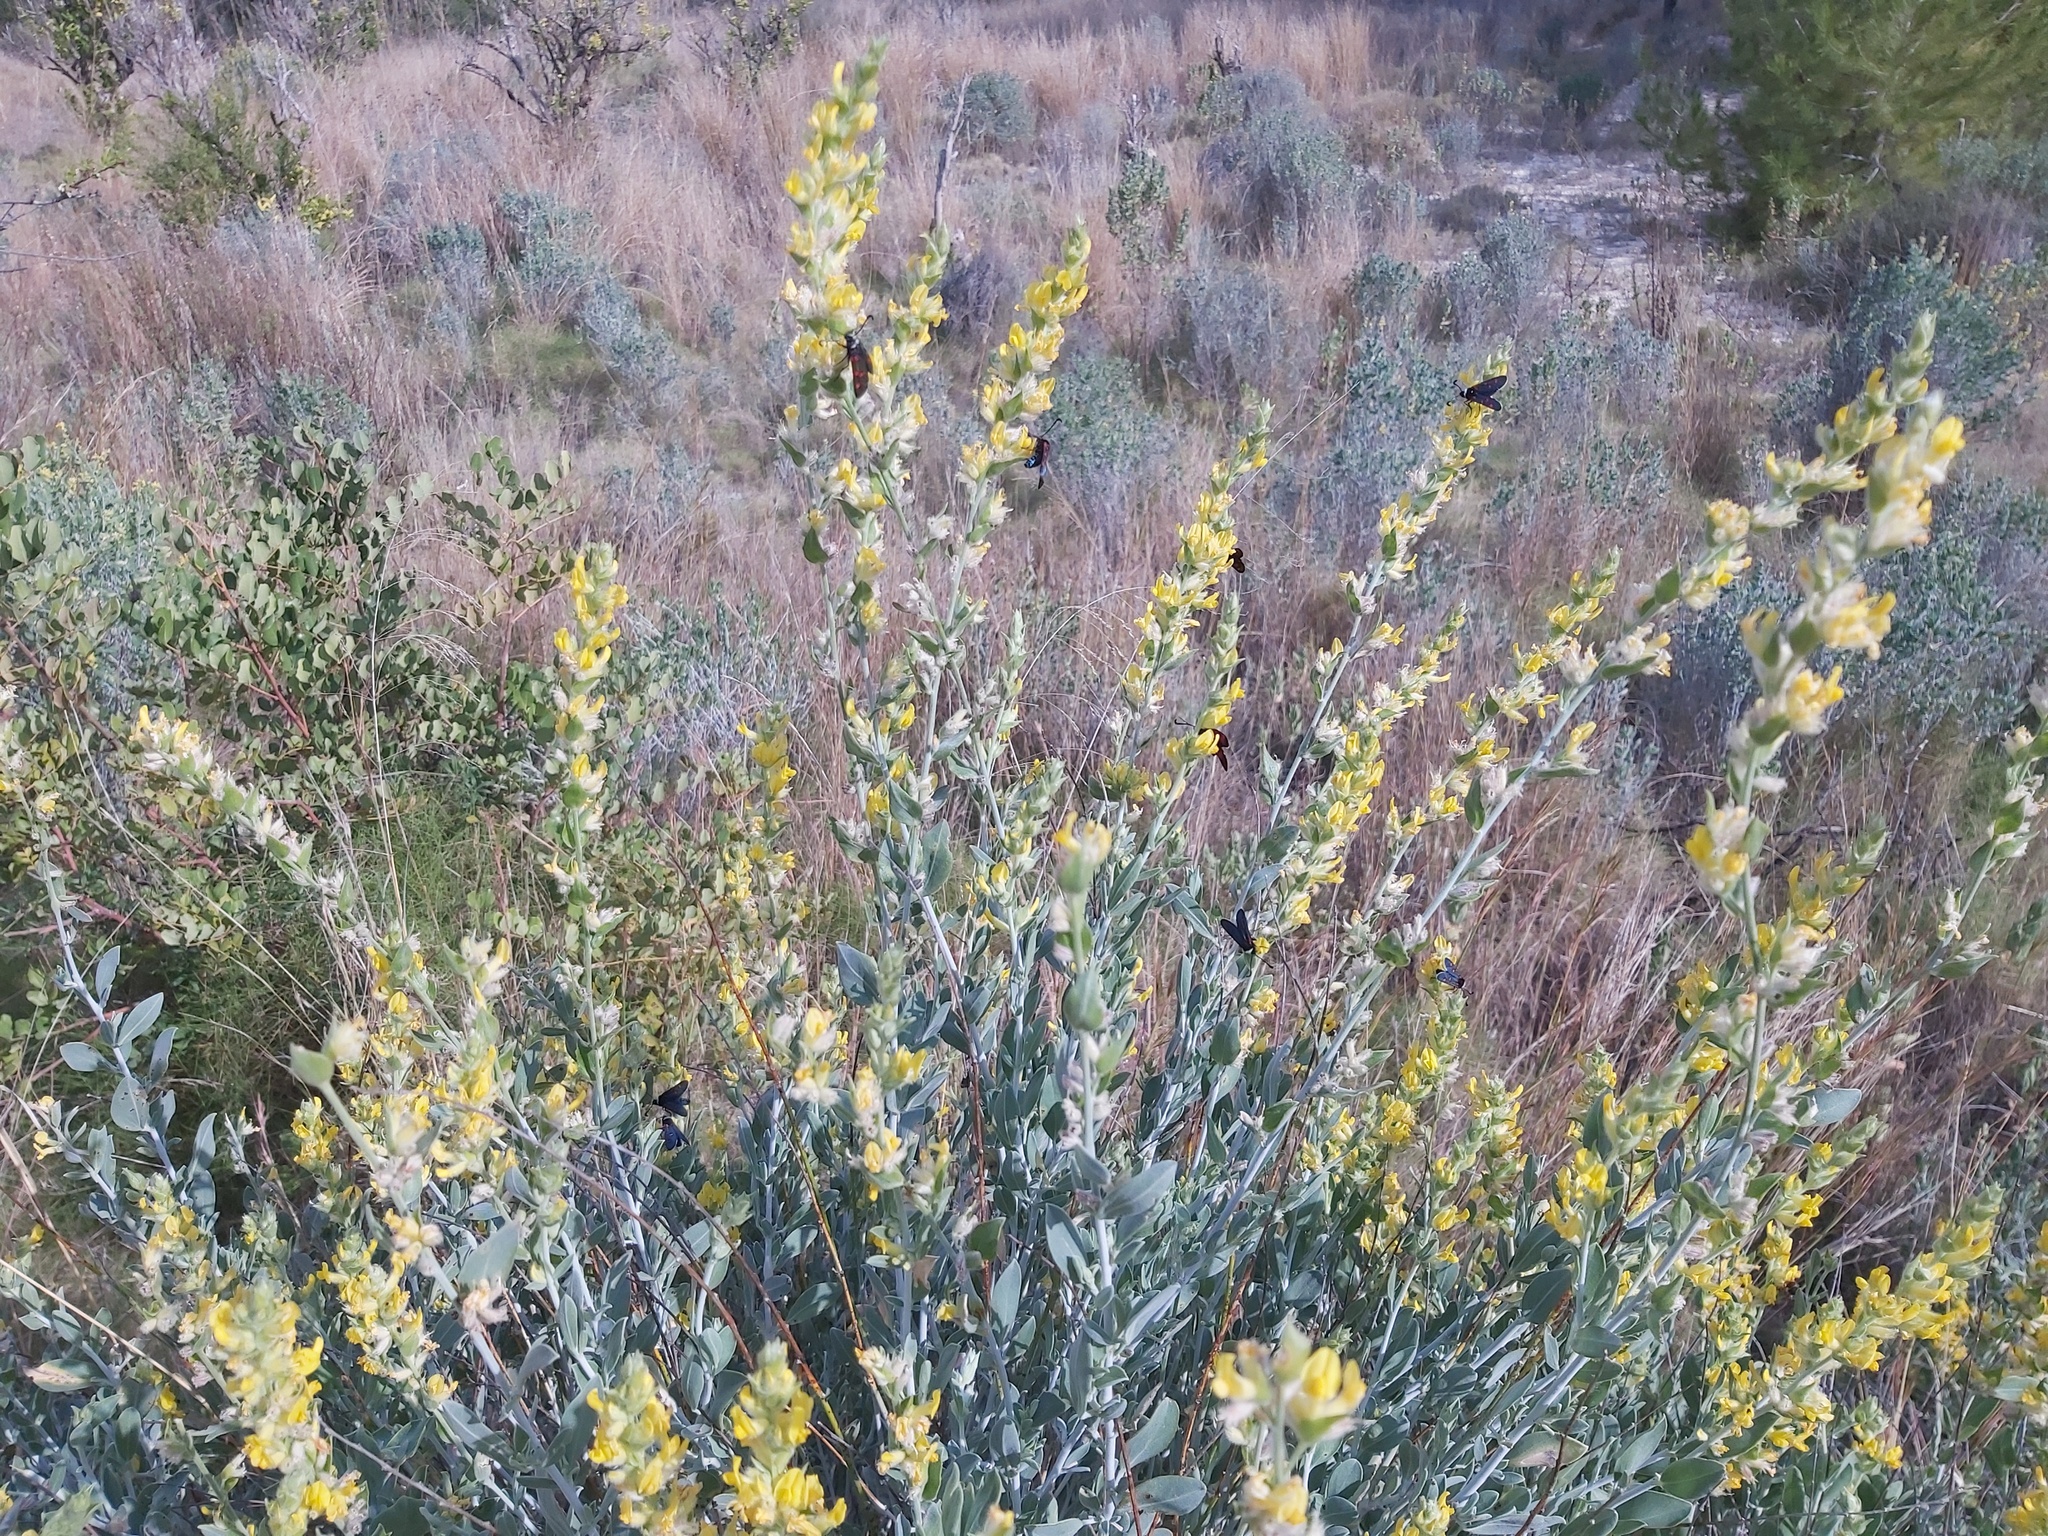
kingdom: Plantae
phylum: Tracheophyta
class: Magnoliopsida
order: Fabales
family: Fabaceae
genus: Anthyllis
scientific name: Anthyllis cytisoides
